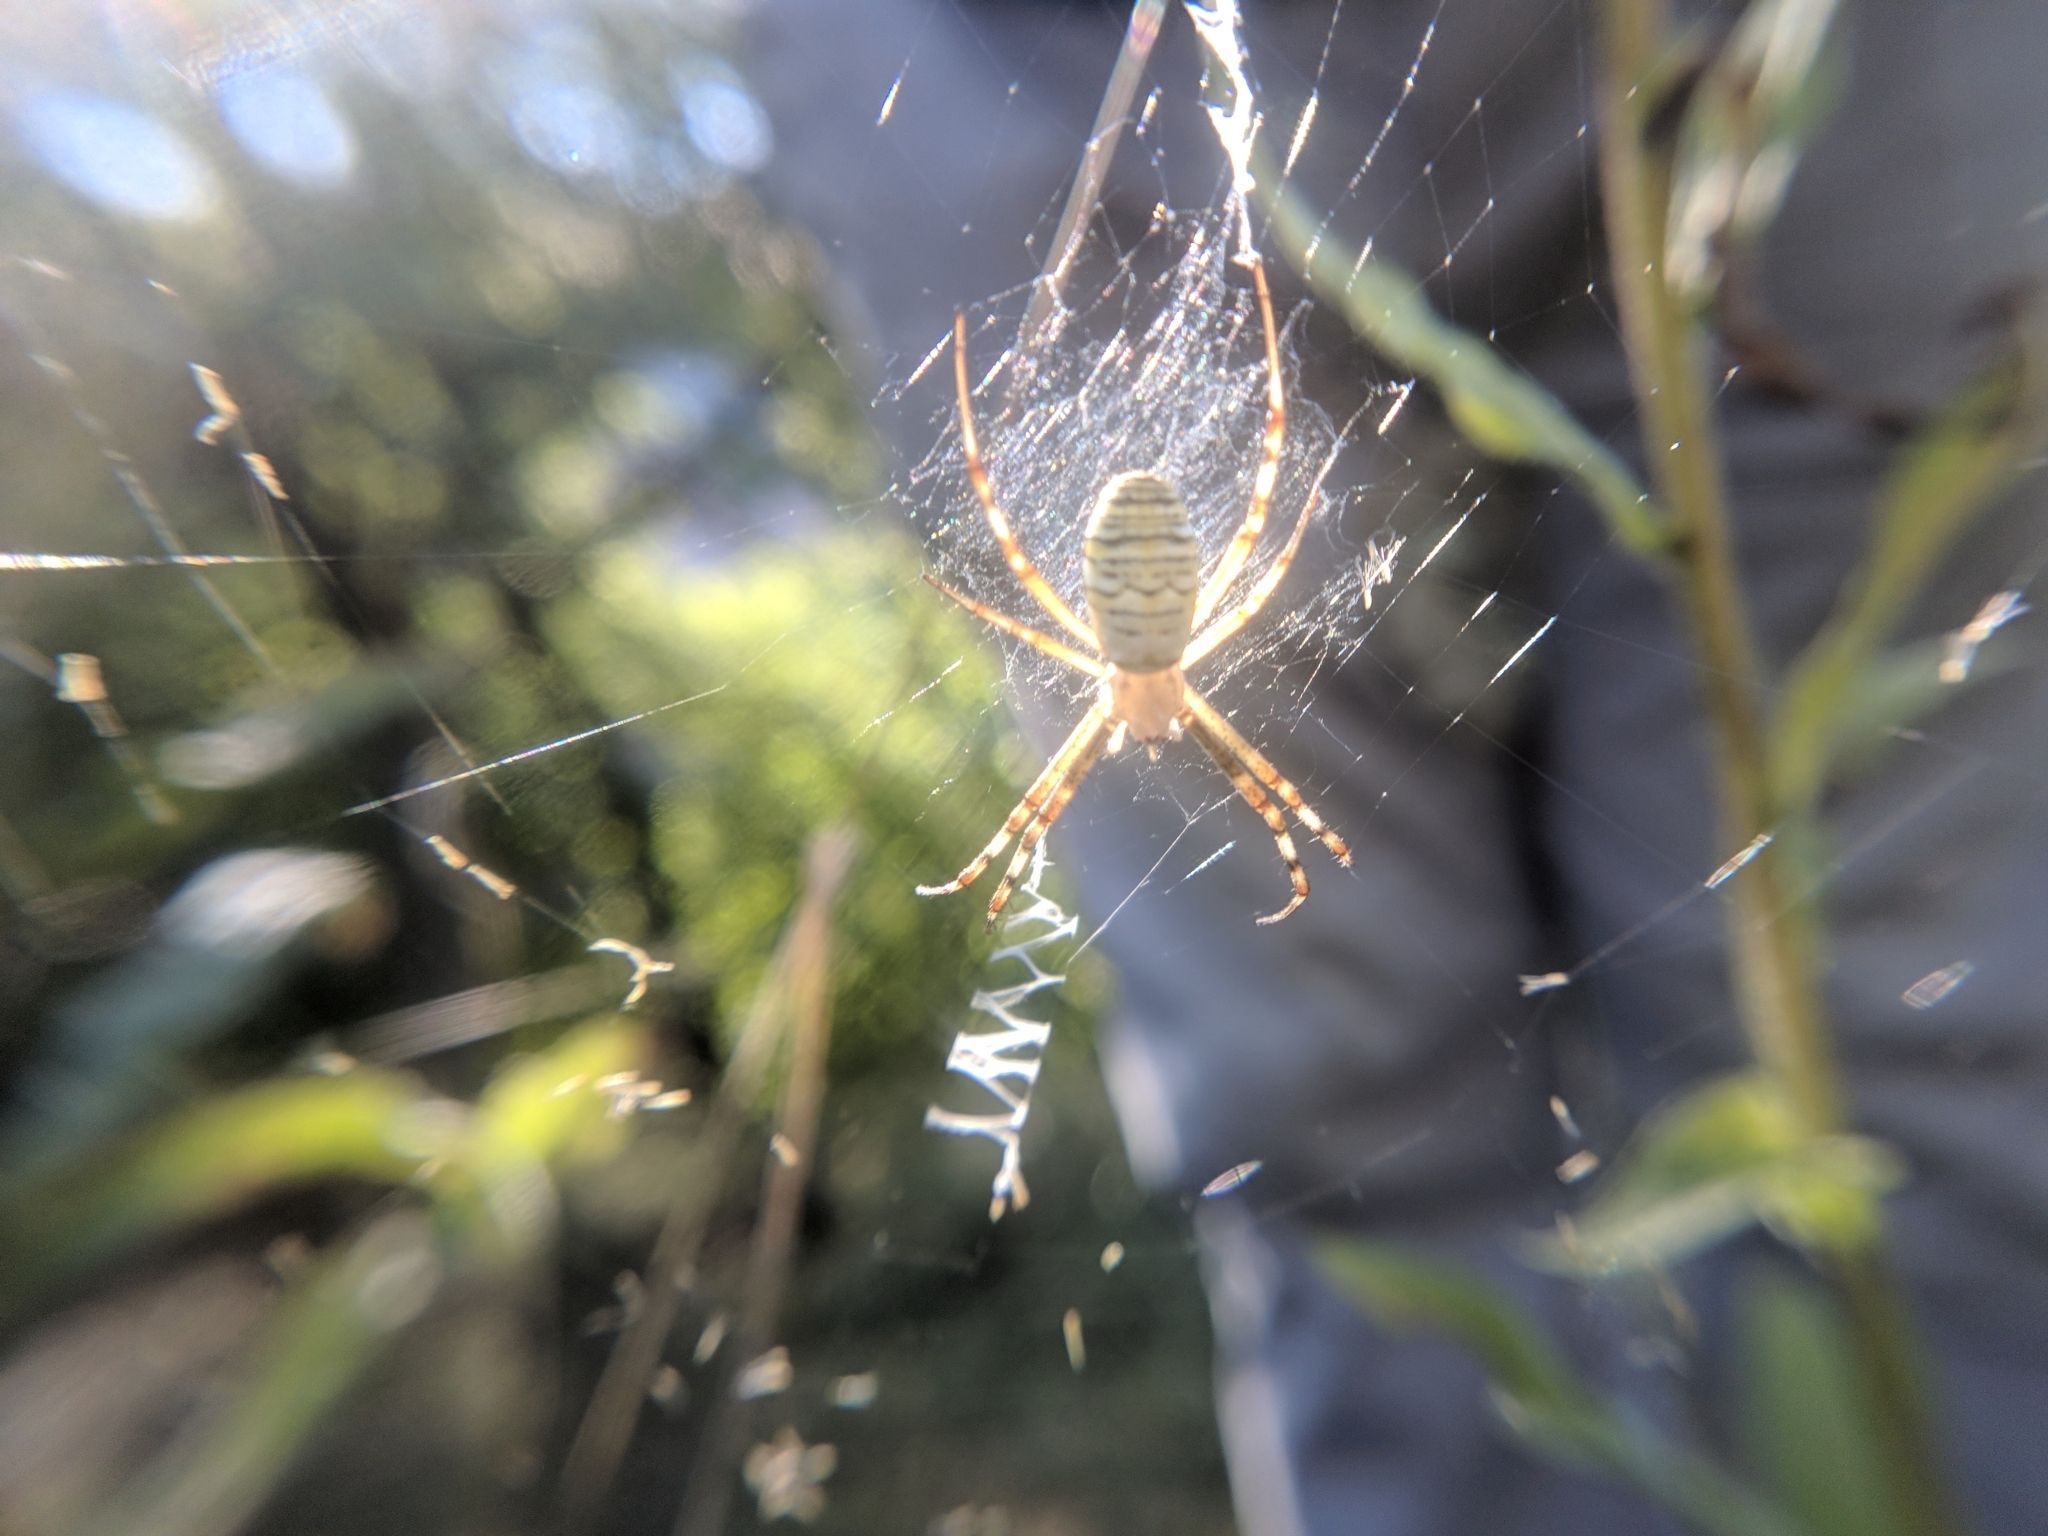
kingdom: Animalia
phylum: Arthropoda
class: Arachnida
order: Araneae
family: Araneidae
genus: Argiope
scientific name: Argiope bruennichi
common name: Wasp spider
